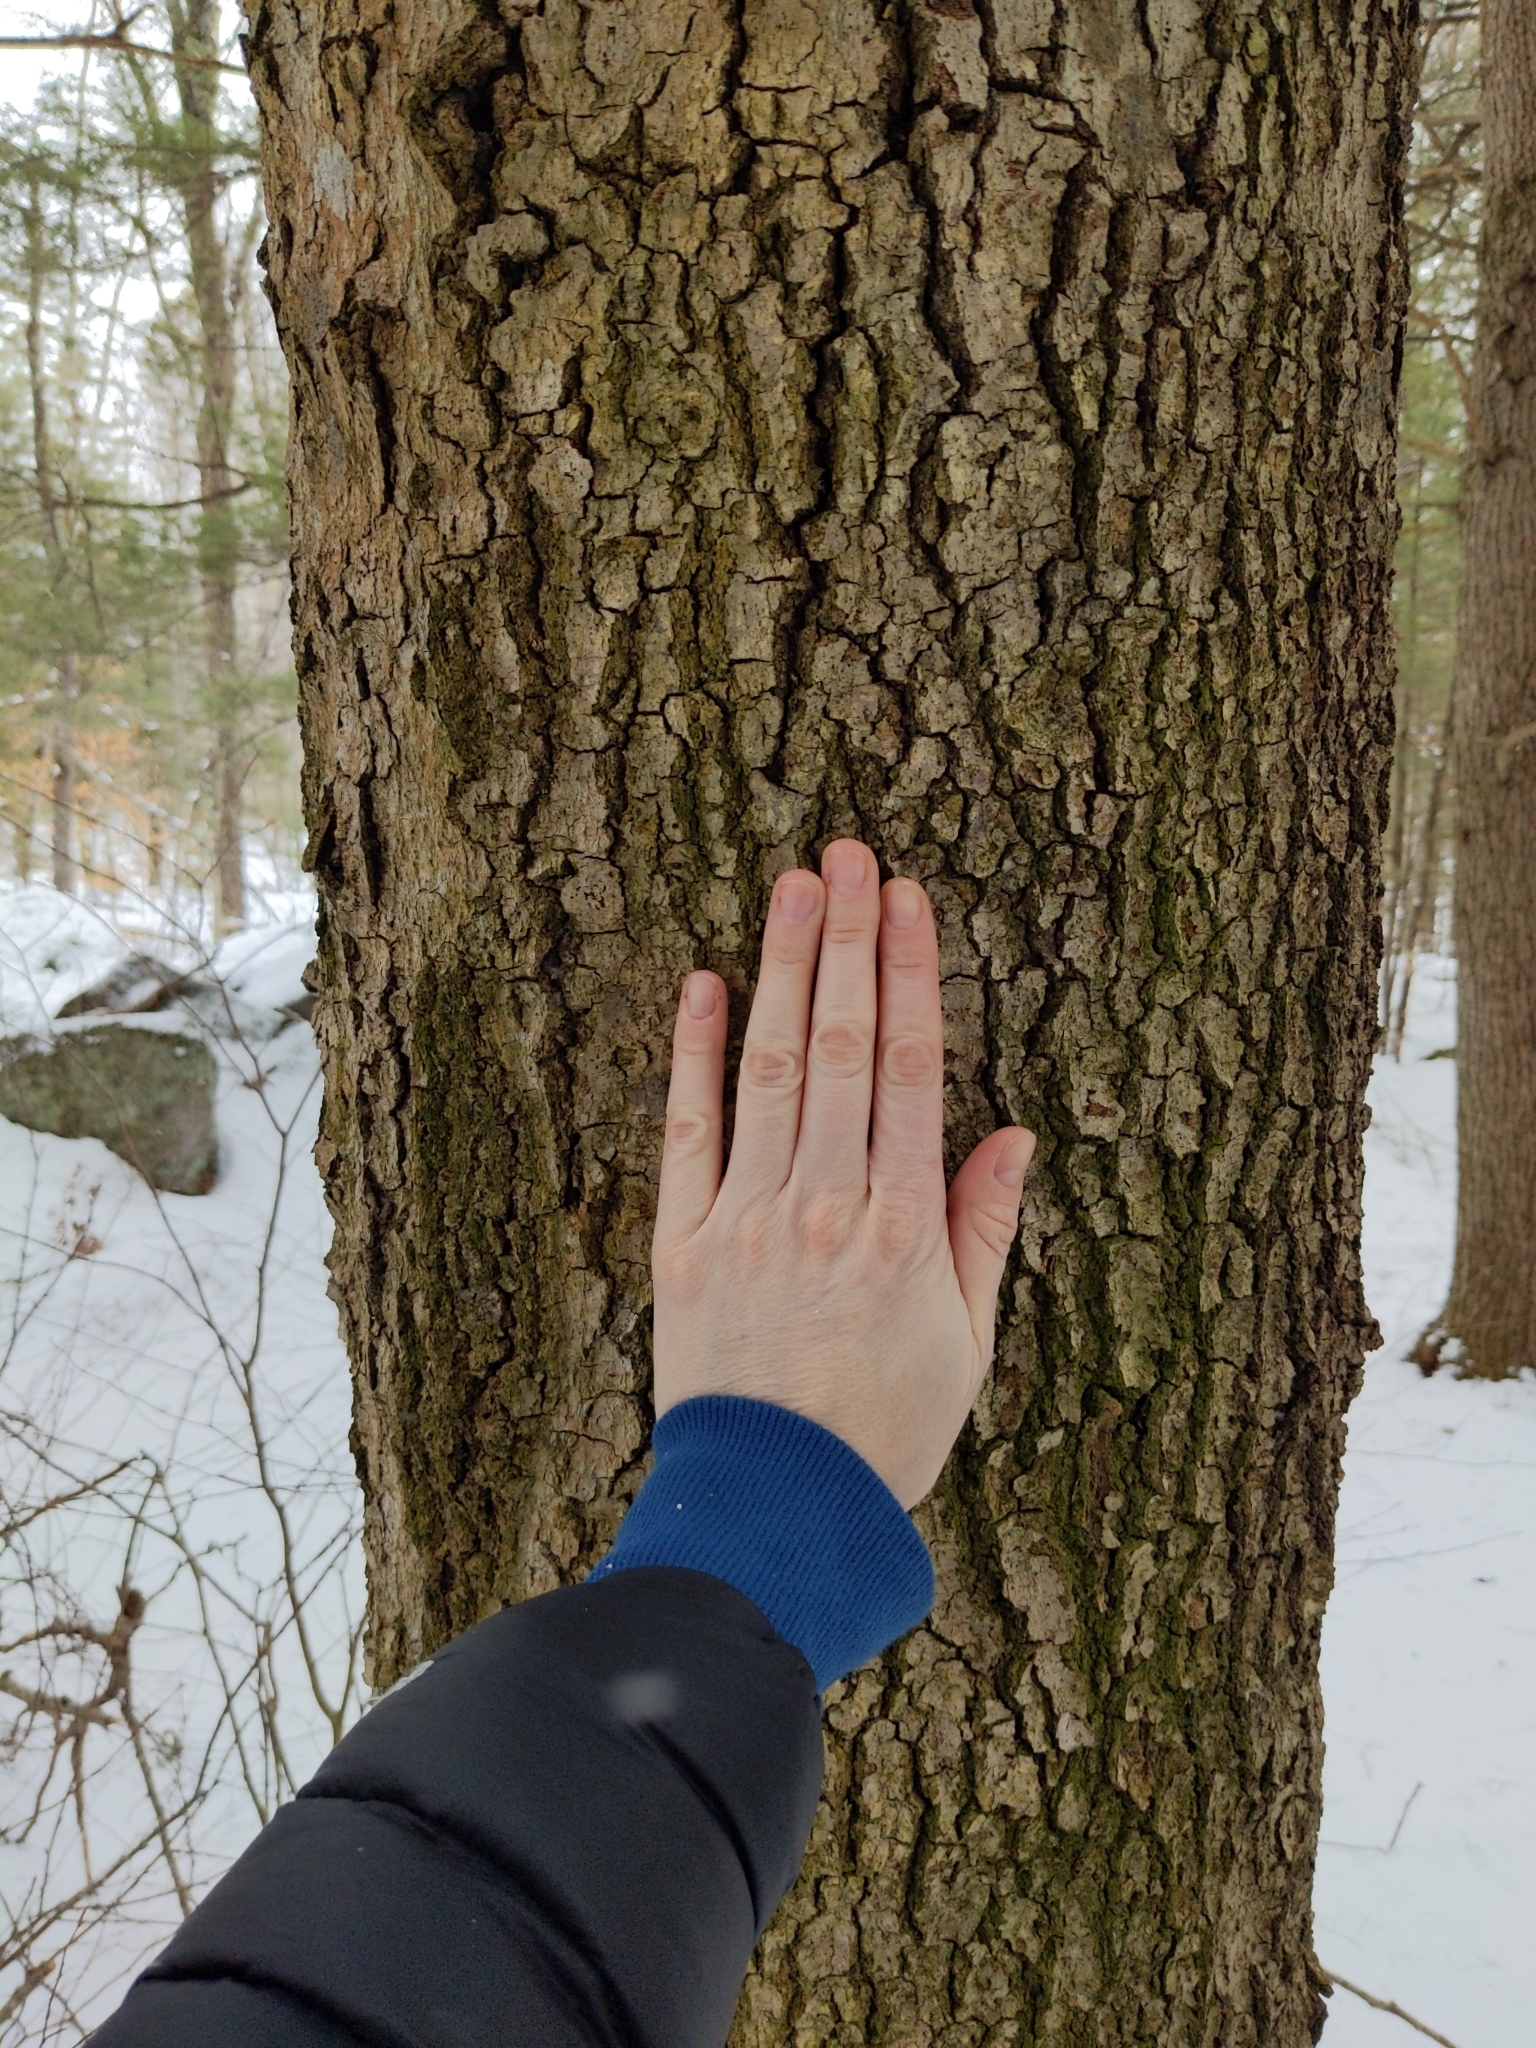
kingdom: Plantae
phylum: Tracheophyta
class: Magnoliopsida
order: Fagales
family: Fagaceae
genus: Fagus
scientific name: Fagus grandifolia
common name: American beech
